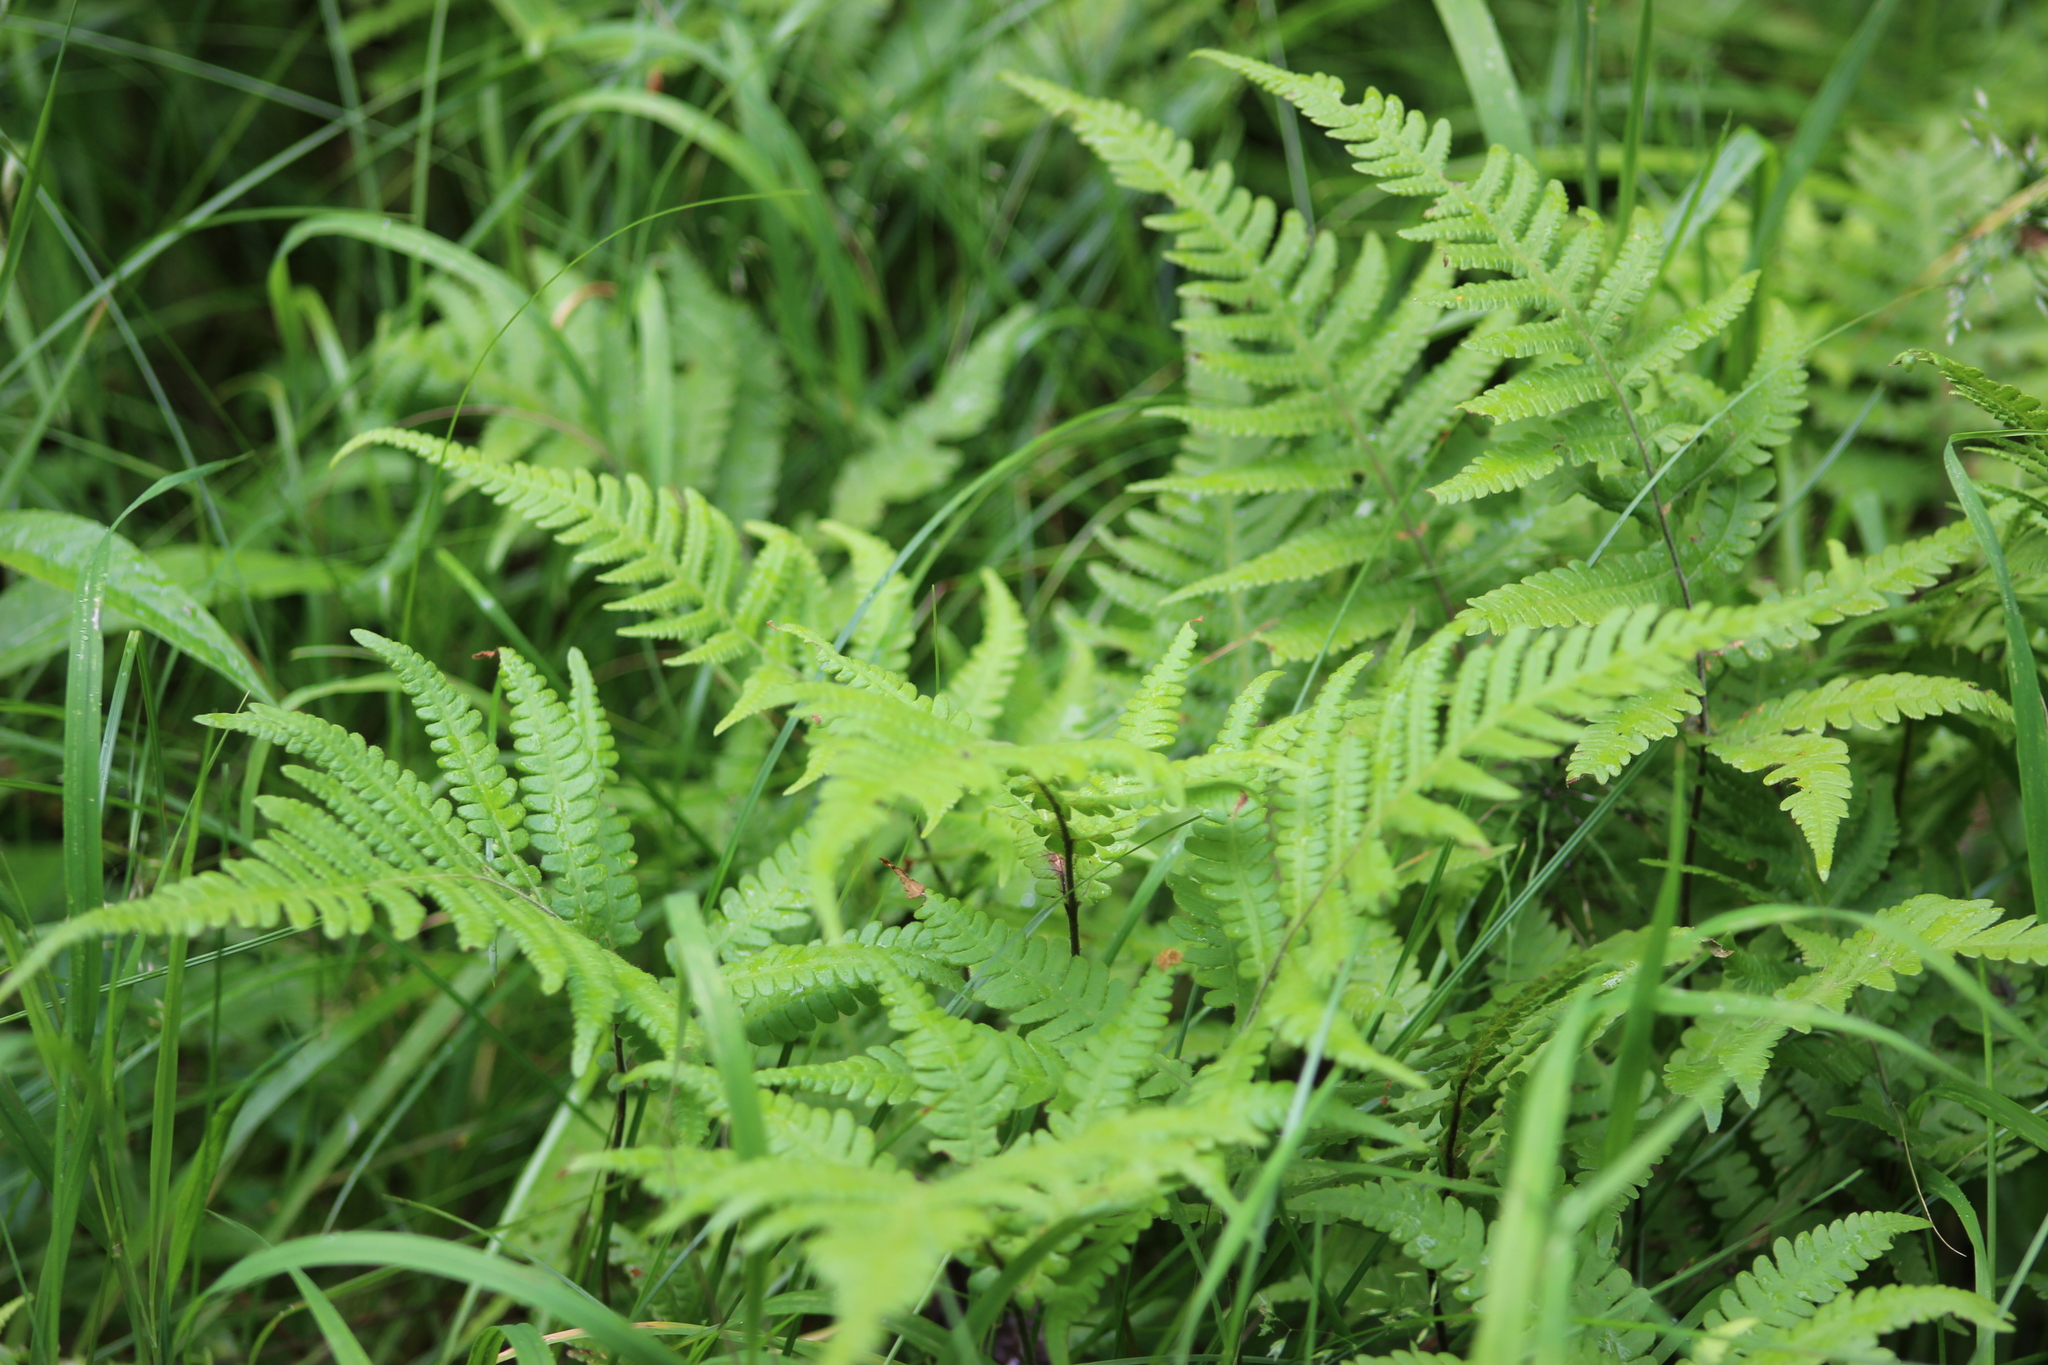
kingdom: Plantae
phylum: Tracheophyta
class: Polypodiopsida
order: Polypodiales
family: Thelypteridaceae
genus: Phegopteris
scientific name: Phegopteris connectilis
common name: Beech fern
